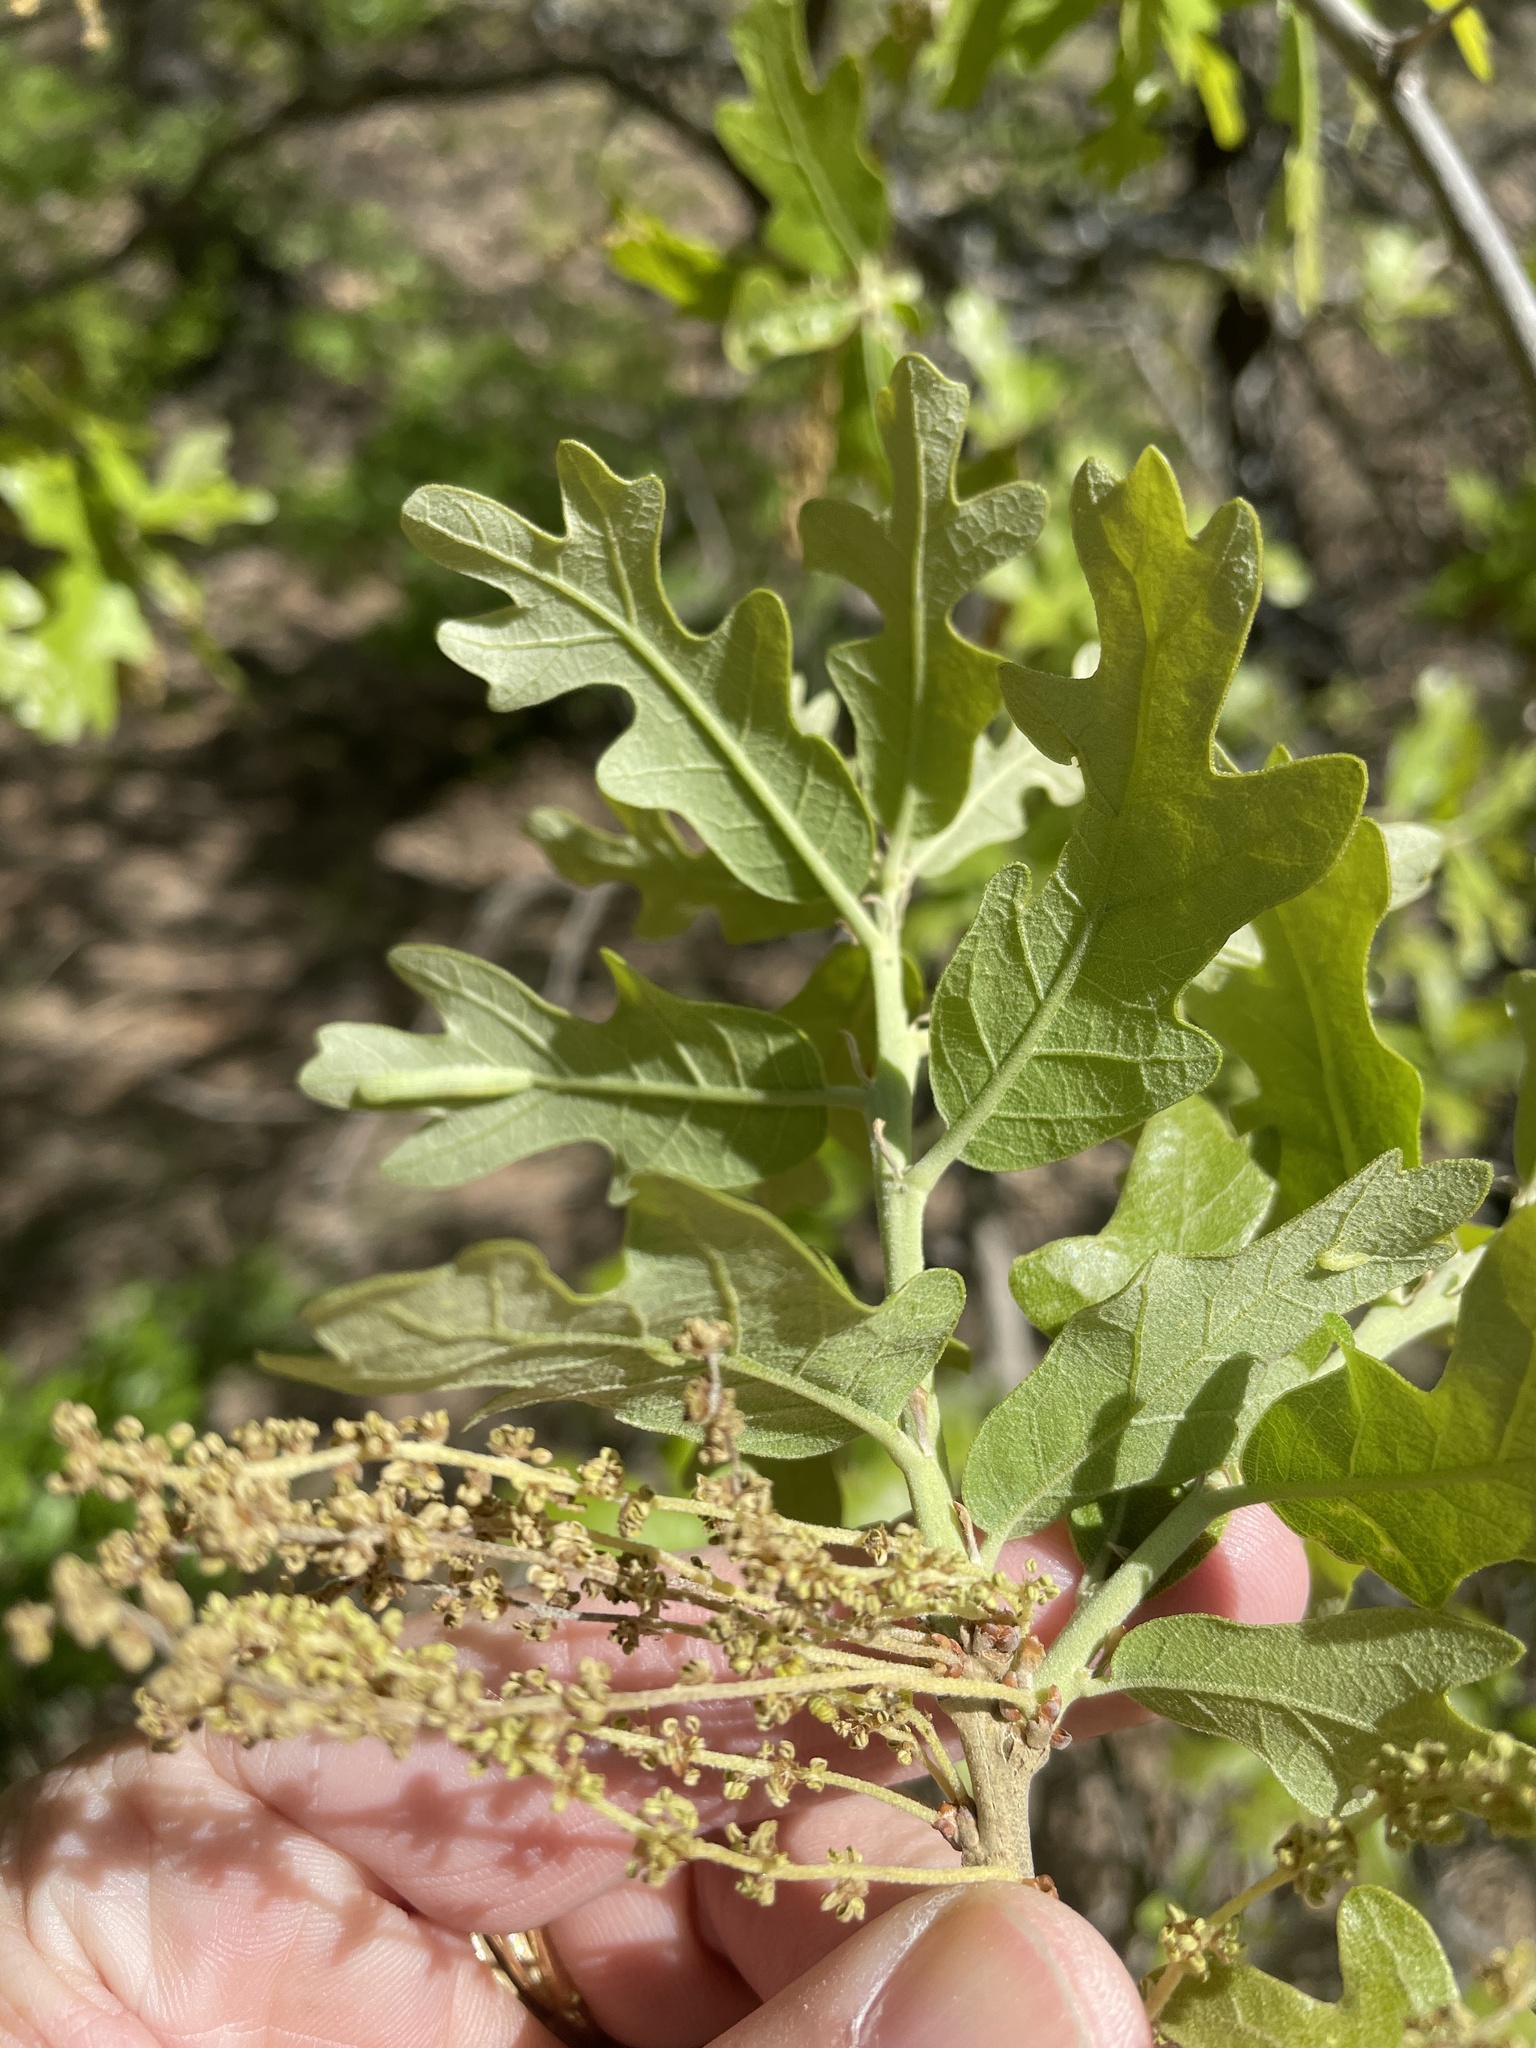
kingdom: Plantae
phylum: Tracheophyta
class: Magnoliopsida
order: Fagales
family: Fagaceae
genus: Quercus
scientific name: Quercus stellata
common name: Post oak
